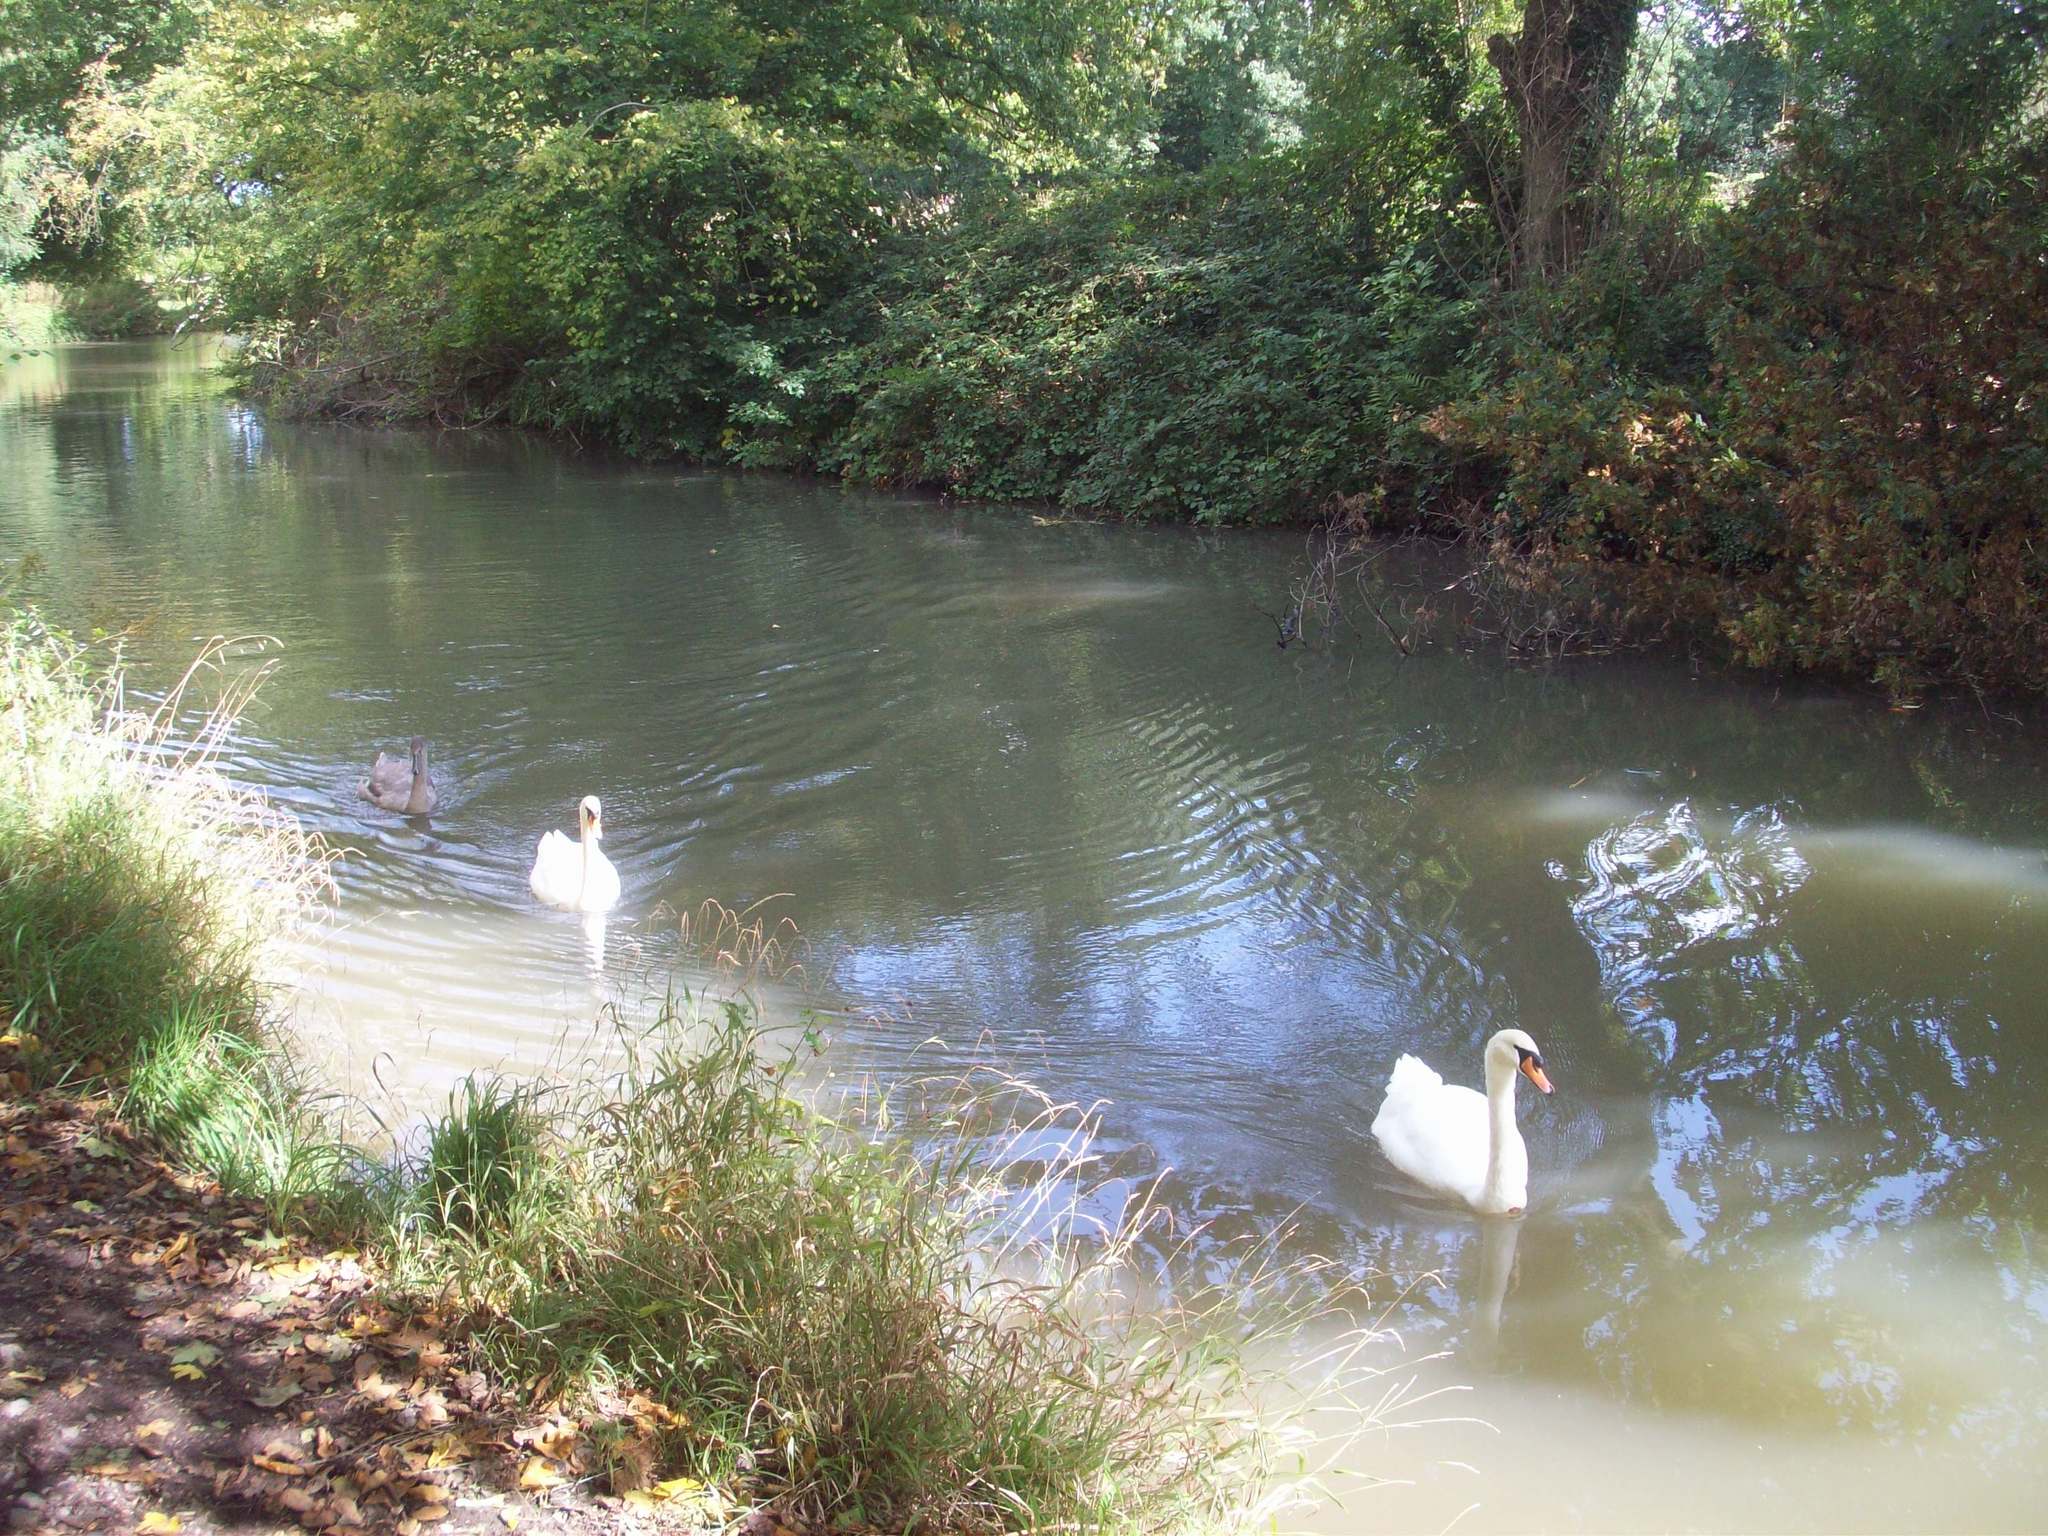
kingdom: Animalia
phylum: Chordata
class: Aves
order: Anseriformes
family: Anatidae
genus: Cygnus
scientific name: Cygnus olor
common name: Mute swan
